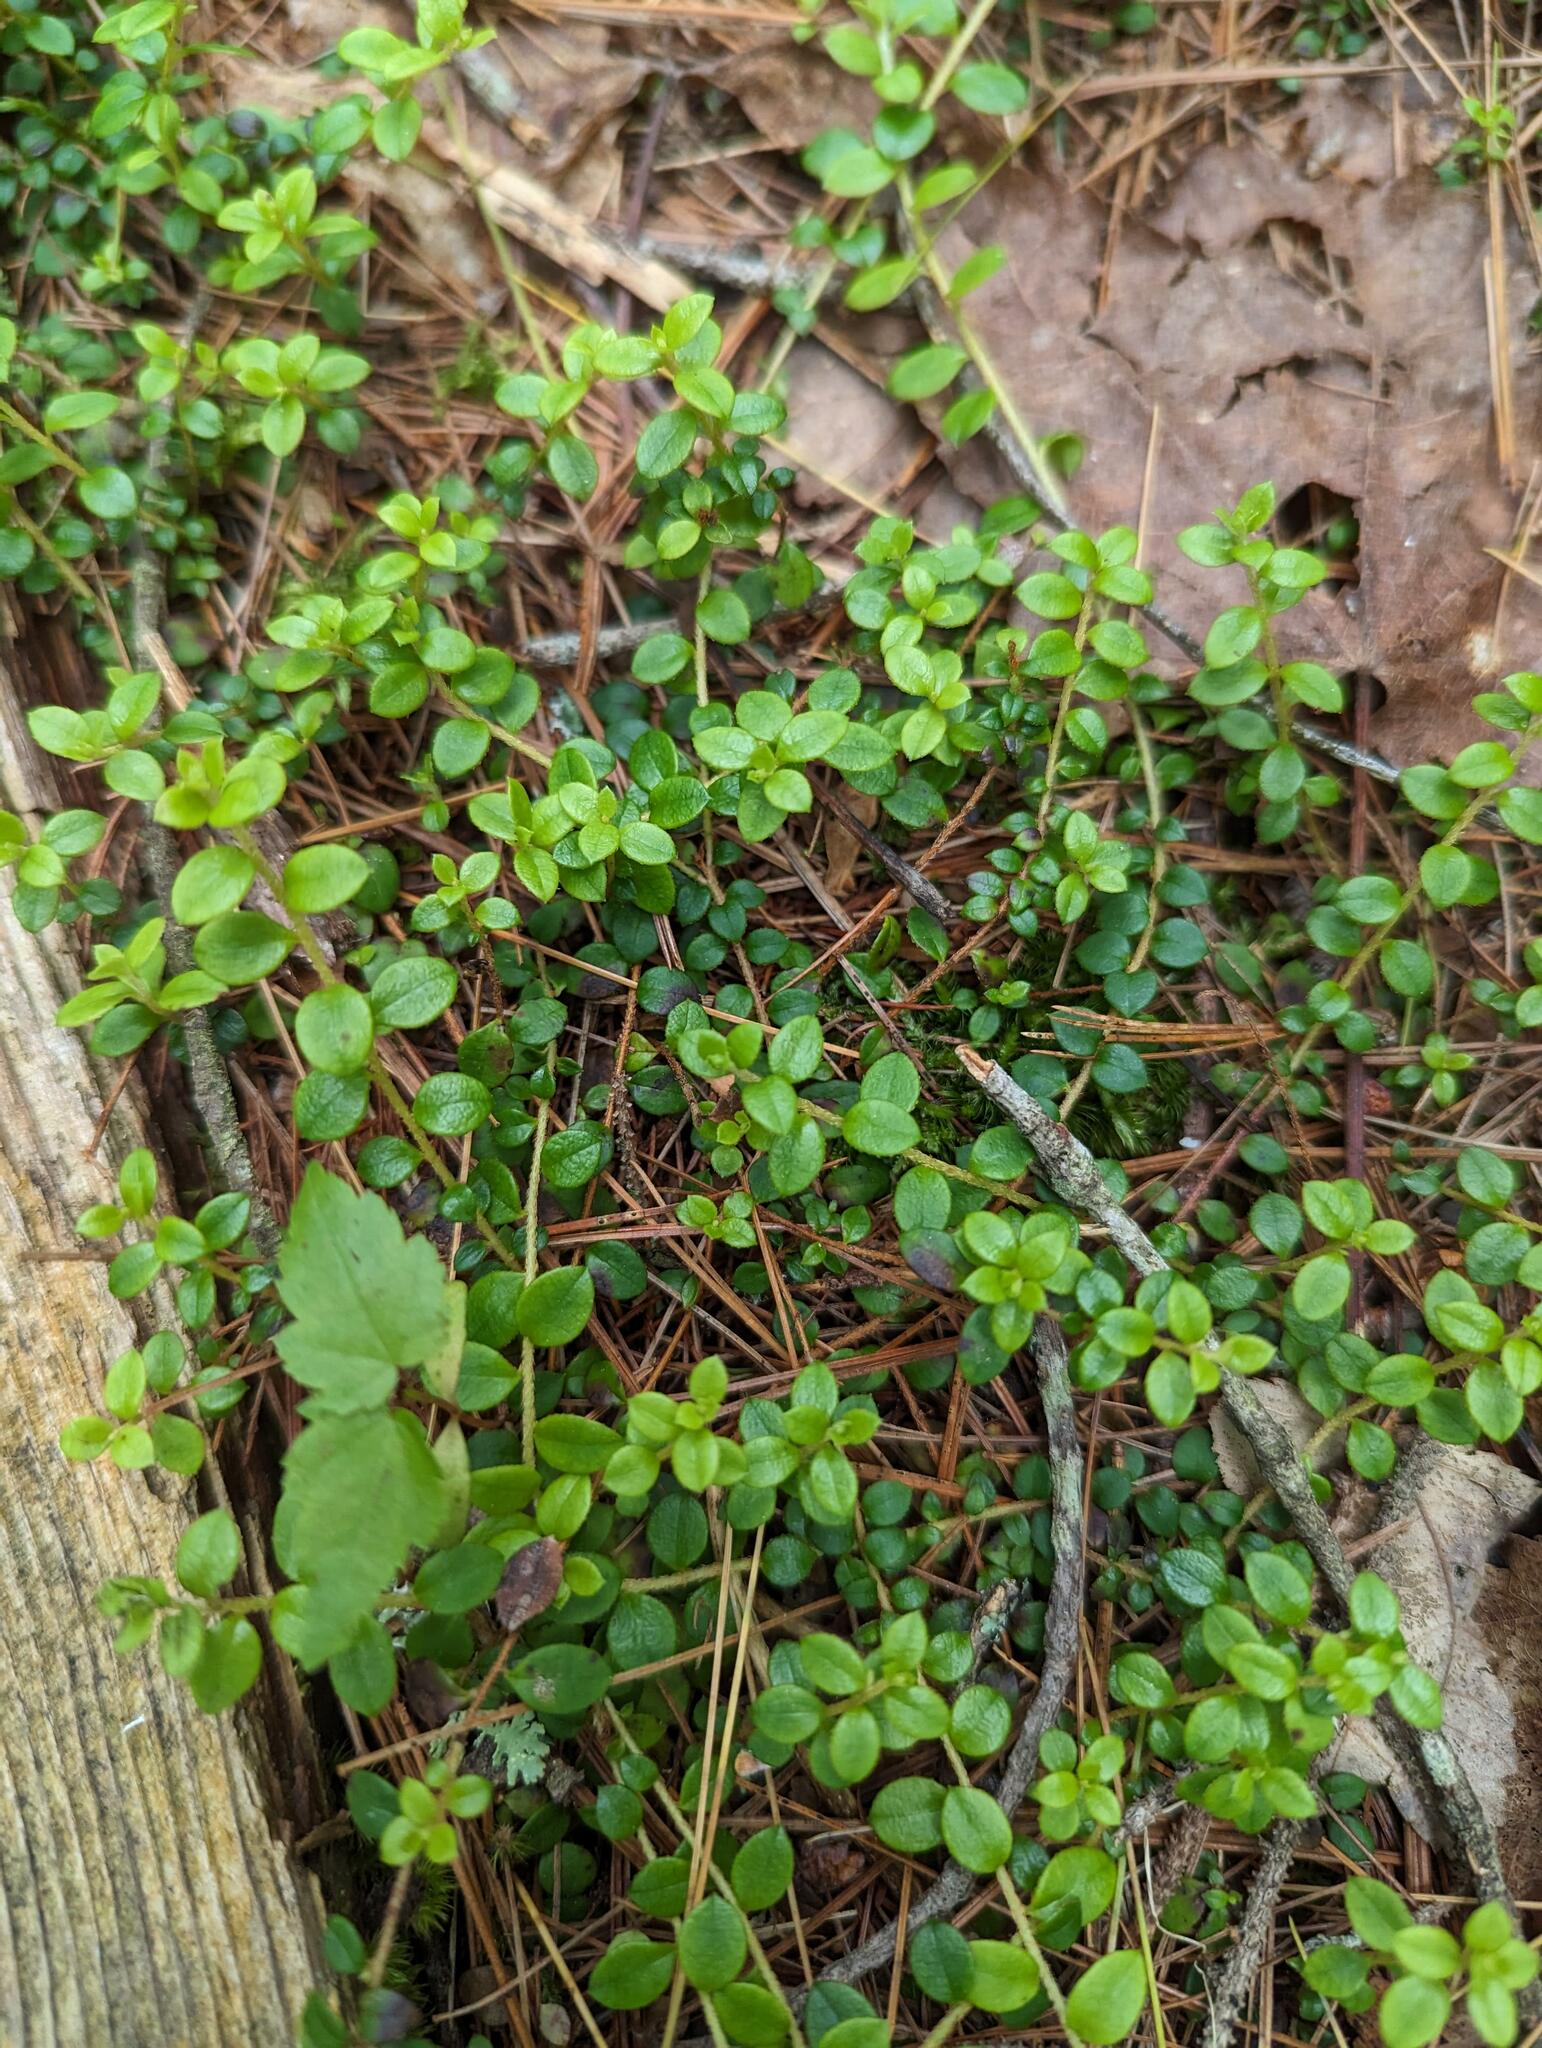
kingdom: Plantae
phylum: Tracheophyta
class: Magnoliopsida
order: Ericales
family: Ericaceae
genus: Gaultheria
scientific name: Gaultheria hispidula
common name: Cancer wintergreen
